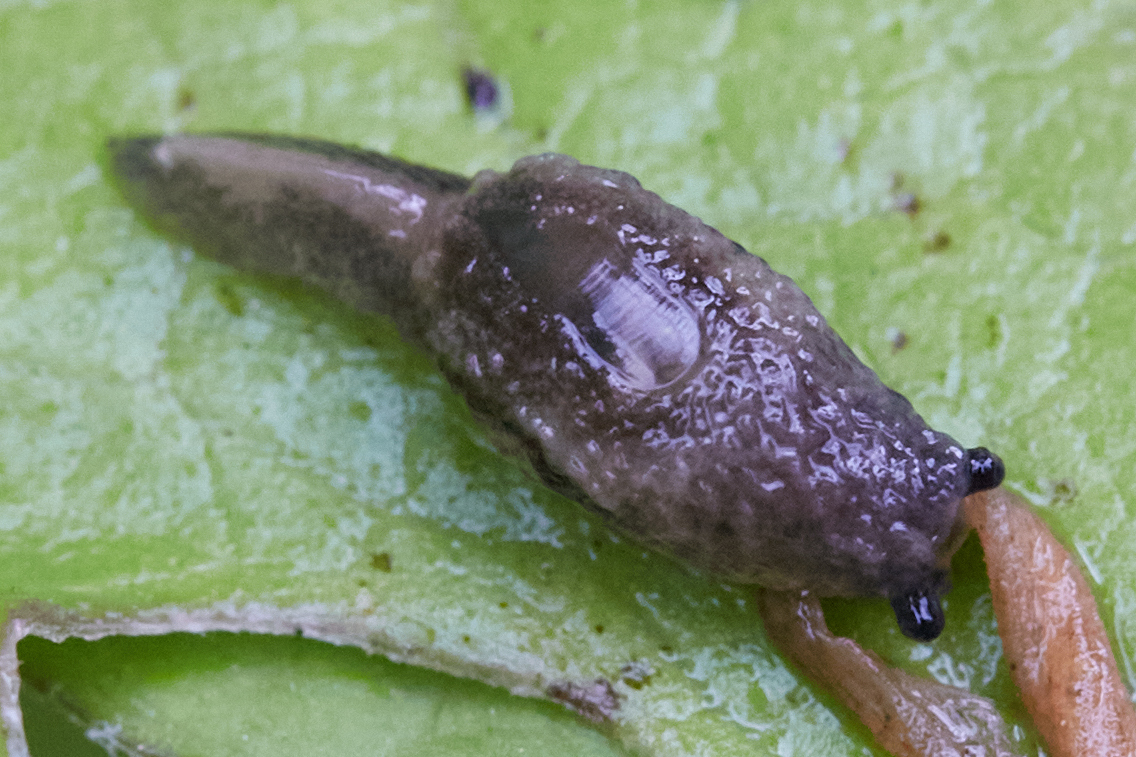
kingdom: Animalia
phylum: Mollusca
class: Gastropoda
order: Stylommatophora
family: Binneyidae
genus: Hemphillia
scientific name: Hemphillia glandulosa
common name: Warty jumping slug
